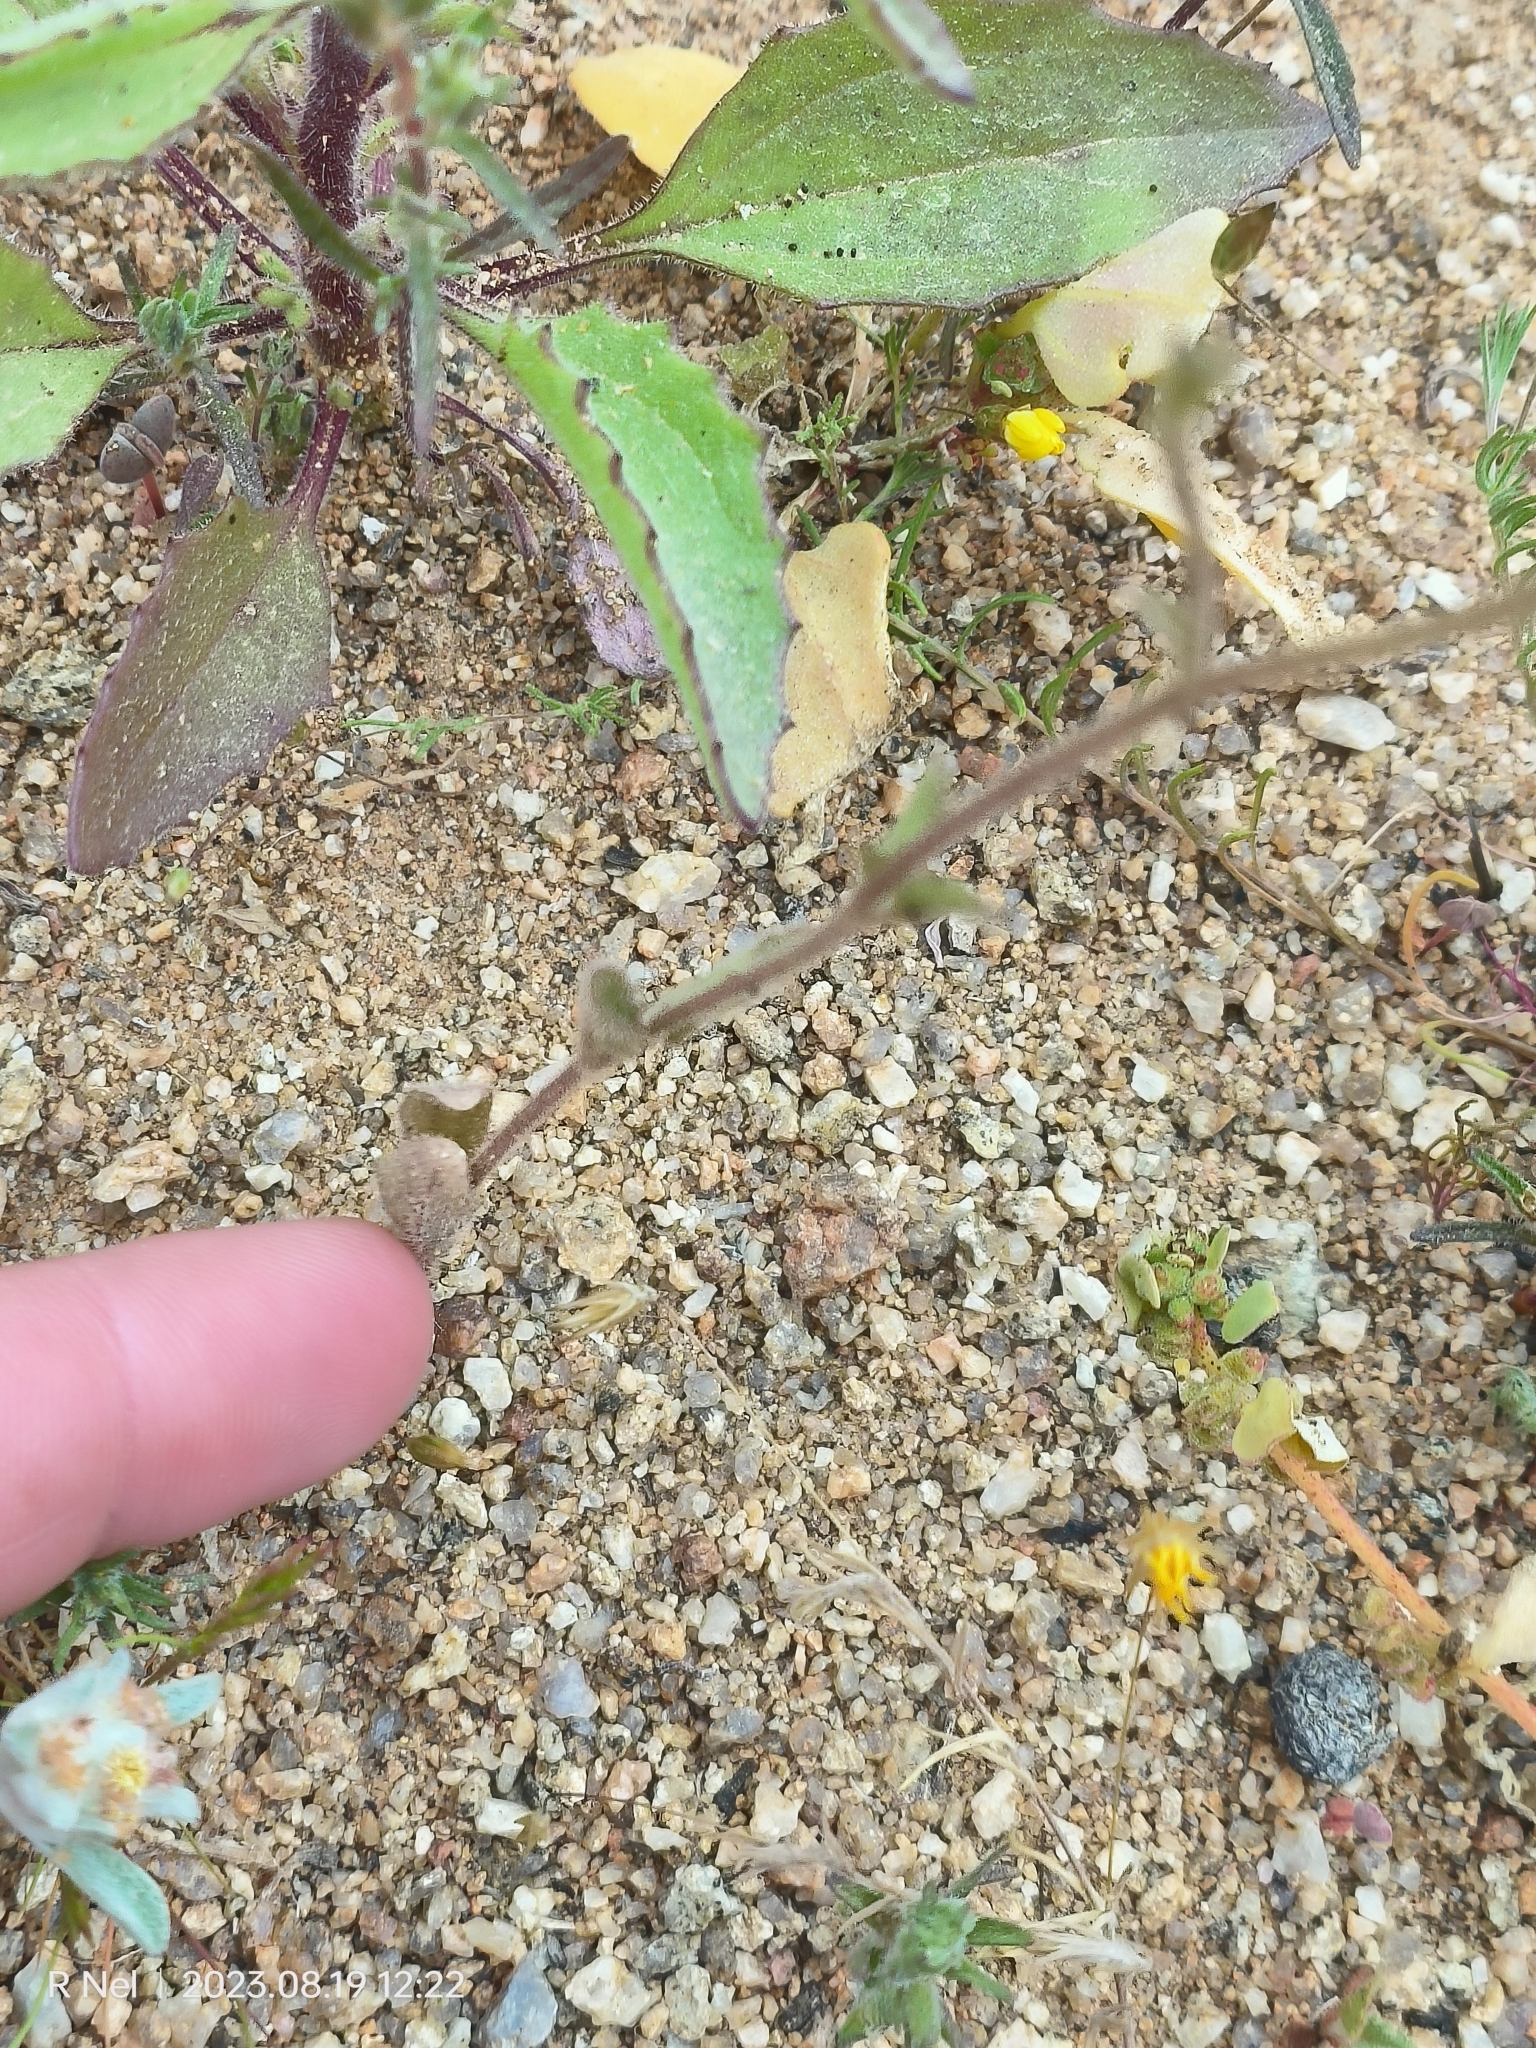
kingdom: Plantae
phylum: Tracheophyta
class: Magnoliopsida
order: Lamiales
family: Scrophulariaceae
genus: Jamesbrittenia
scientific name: Jamesbrittenia racemosa
